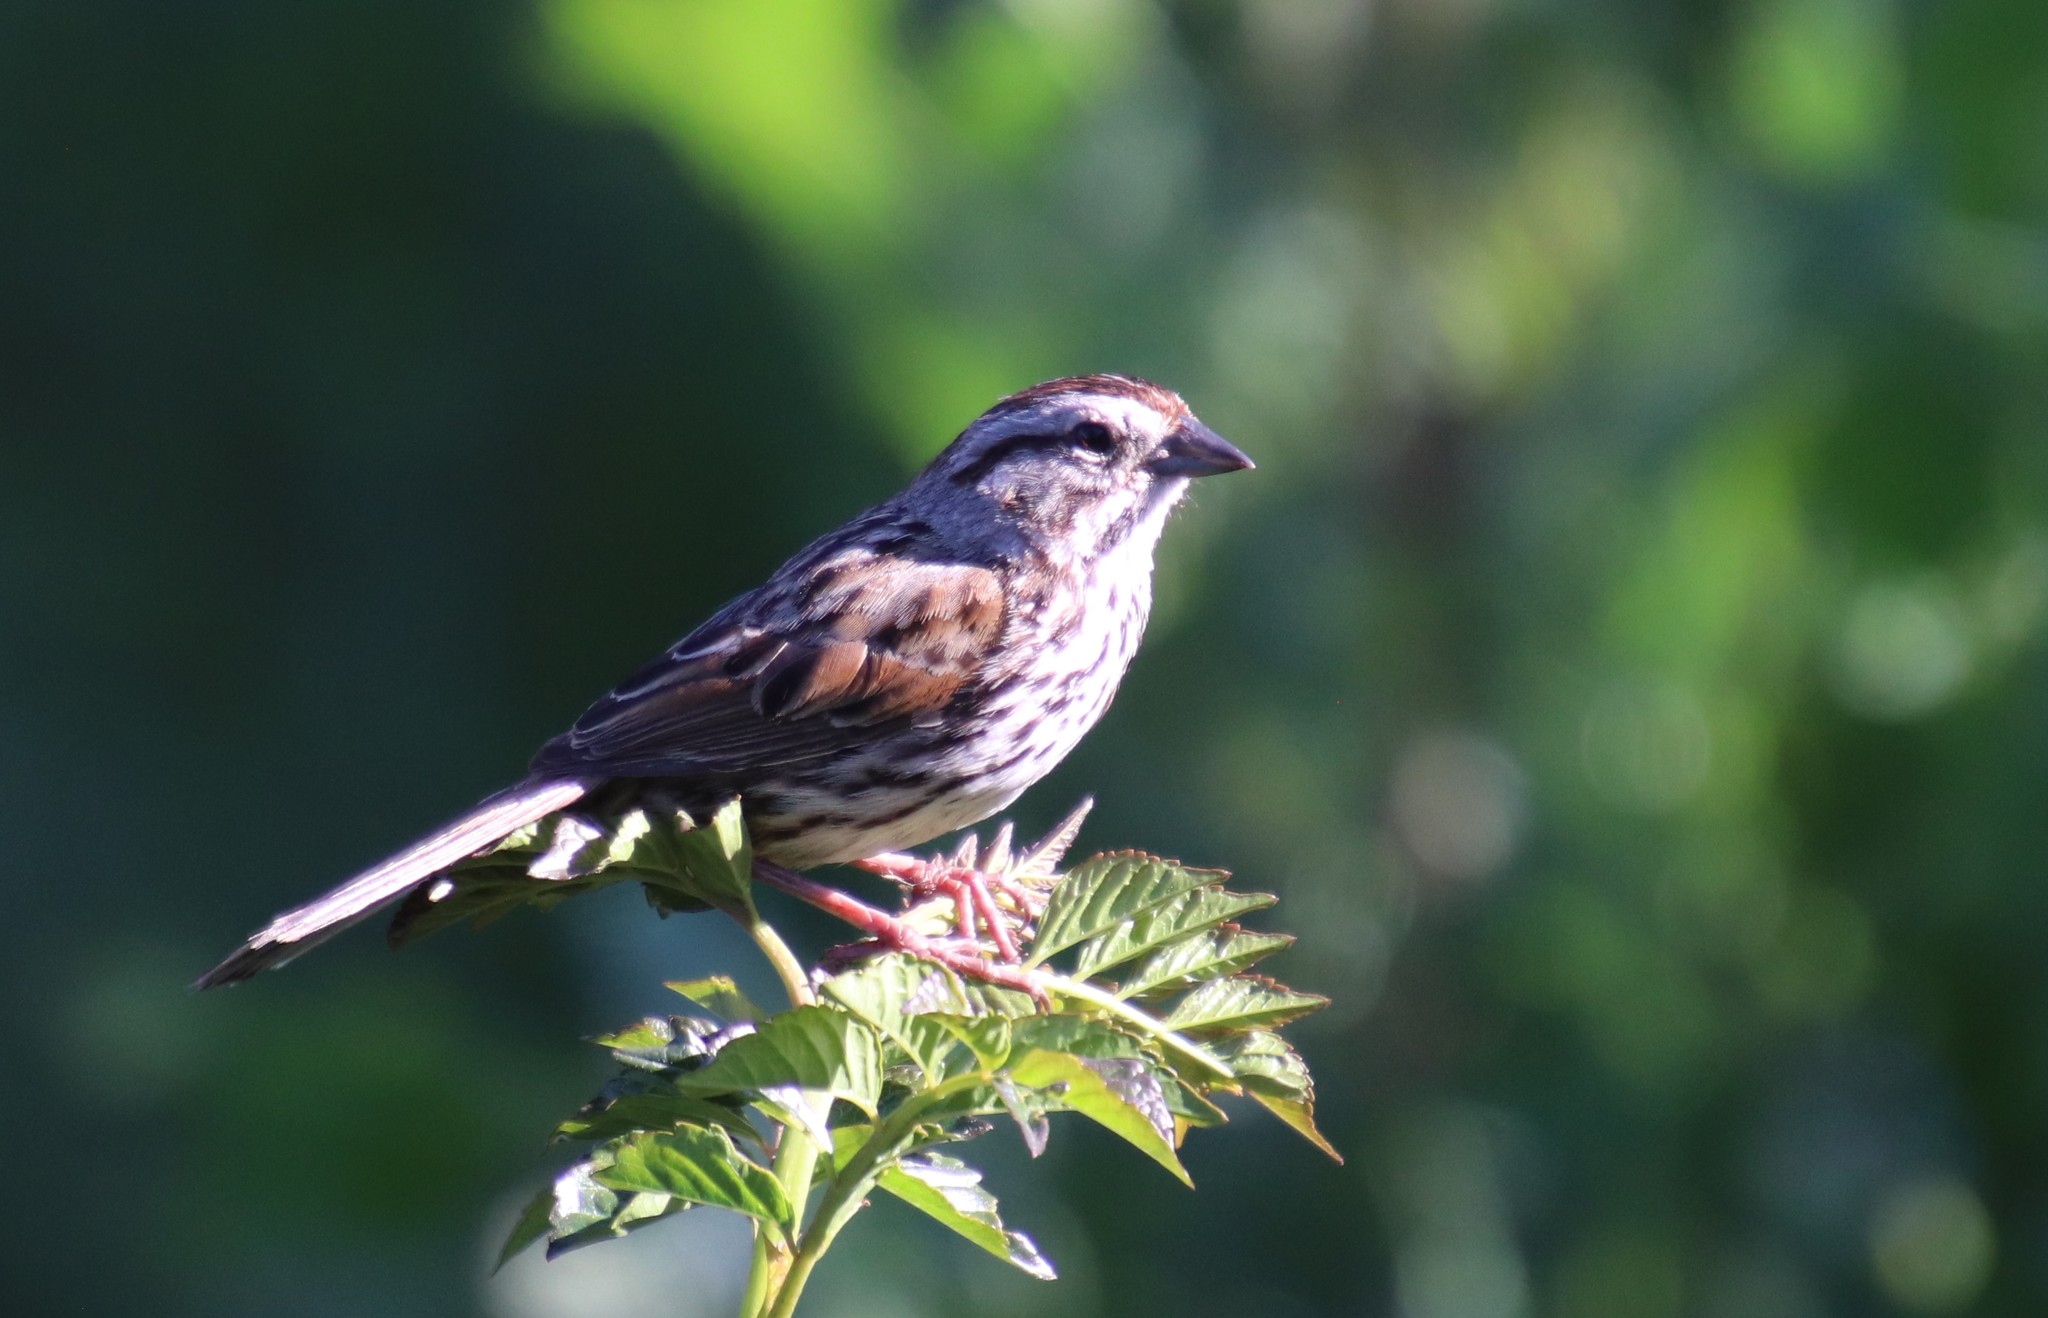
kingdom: Animalia
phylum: Chordata
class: Aves
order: Passeriformes
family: Passerellidae
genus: Melospiza
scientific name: Melospiza melodia
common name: Song sparrow
